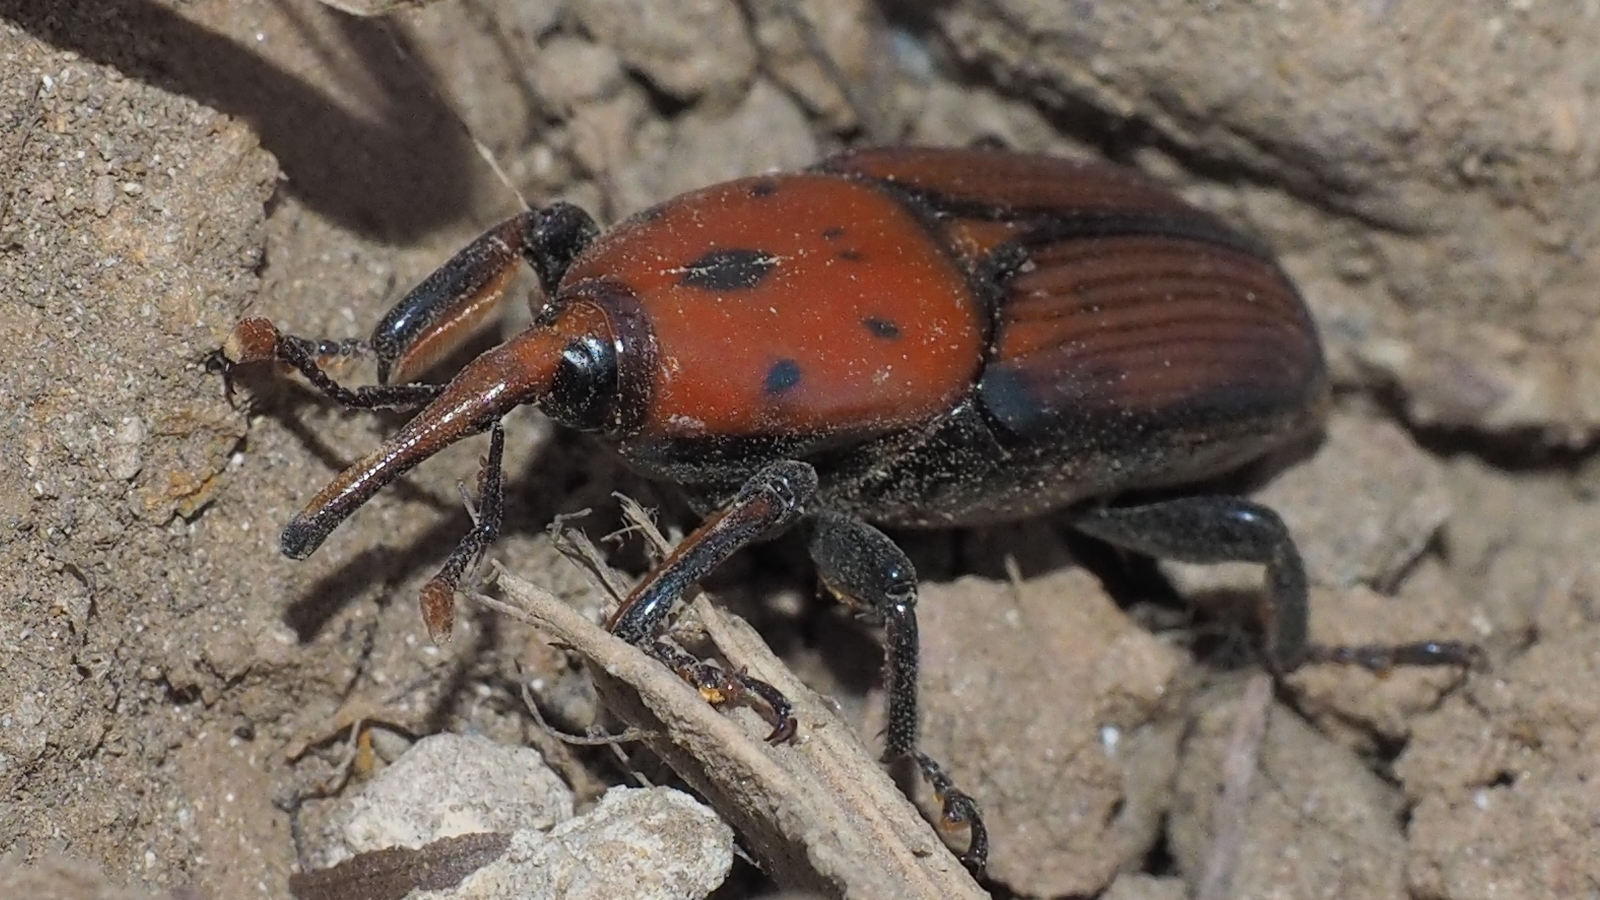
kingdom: Animalia
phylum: Arthropoda
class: Insecta
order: Coleoptera
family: Dryophthoridae
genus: Rhynchophorus
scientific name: Rhynchophorus ferrugineus
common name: Red palm weevil
